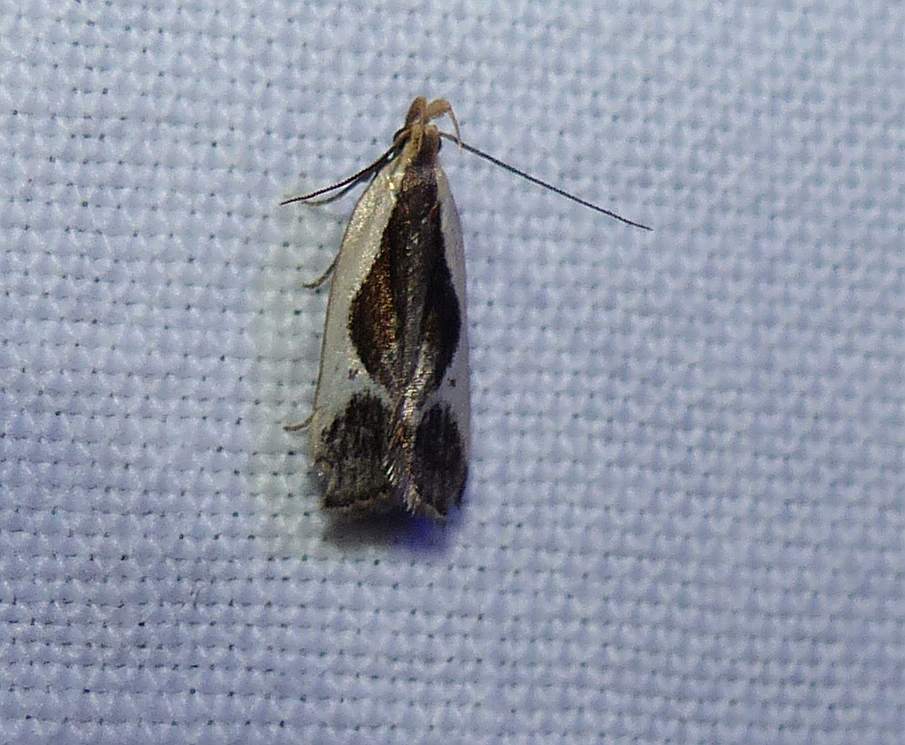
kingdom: Animalia
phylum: Arthropoda
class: Insecta
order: Lepidoptera
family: Gelechiidae
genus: Dichomeris
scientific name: Dichomeris flavocostella
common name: Cream-edged dichomeris moth
